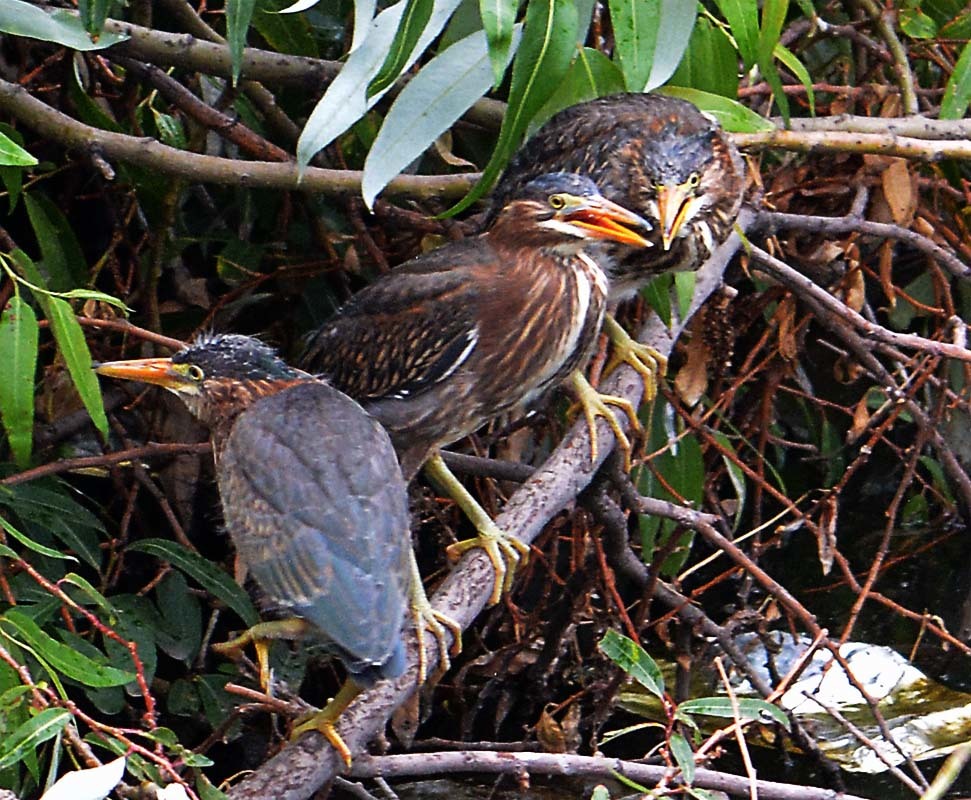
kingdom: Animalia
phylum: Chordata
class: Aves
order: Pelecaniformes
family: Ardeidae
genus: Butorides
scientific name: Butorides virescens
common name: Green heron
